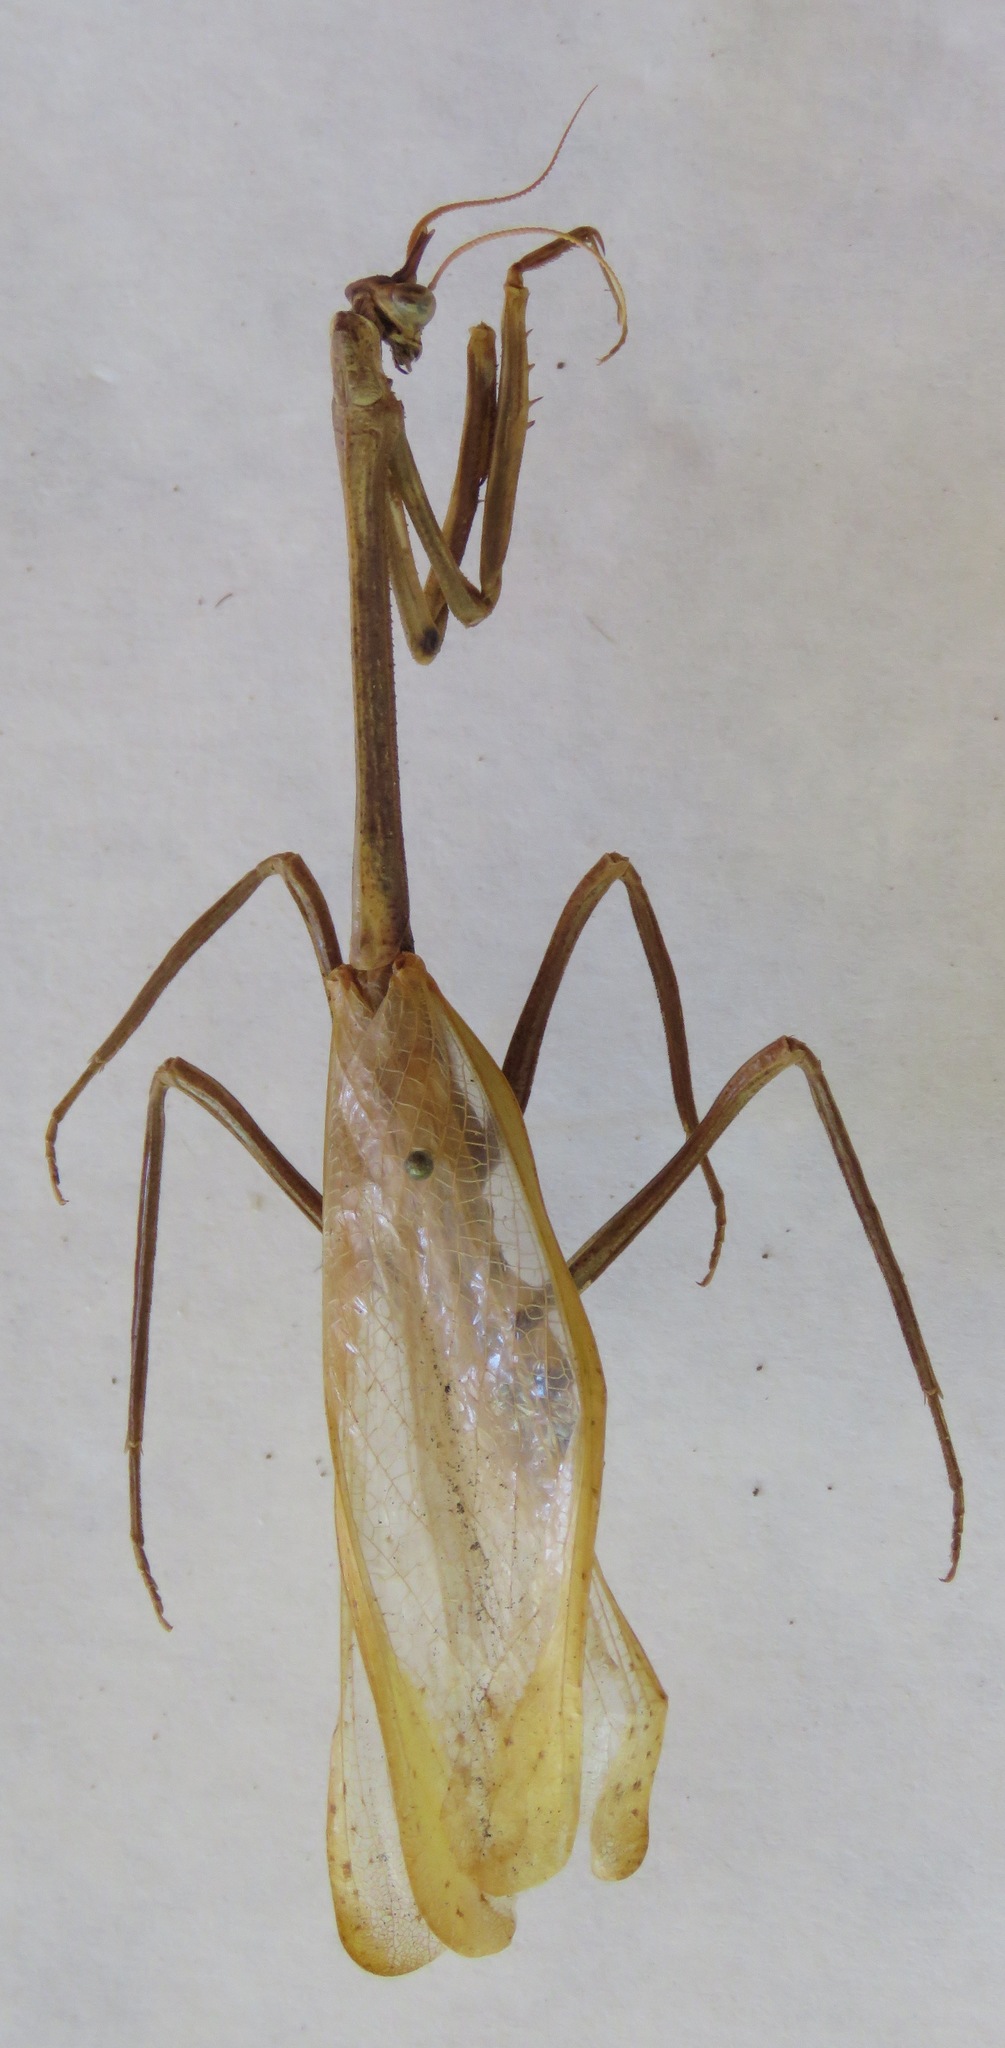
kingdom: Animalia
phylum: Arthropoda
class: Insecta
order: Mantodea
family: Mantidae
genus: Pseudovates
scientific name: Pseudovates chlorophaea
